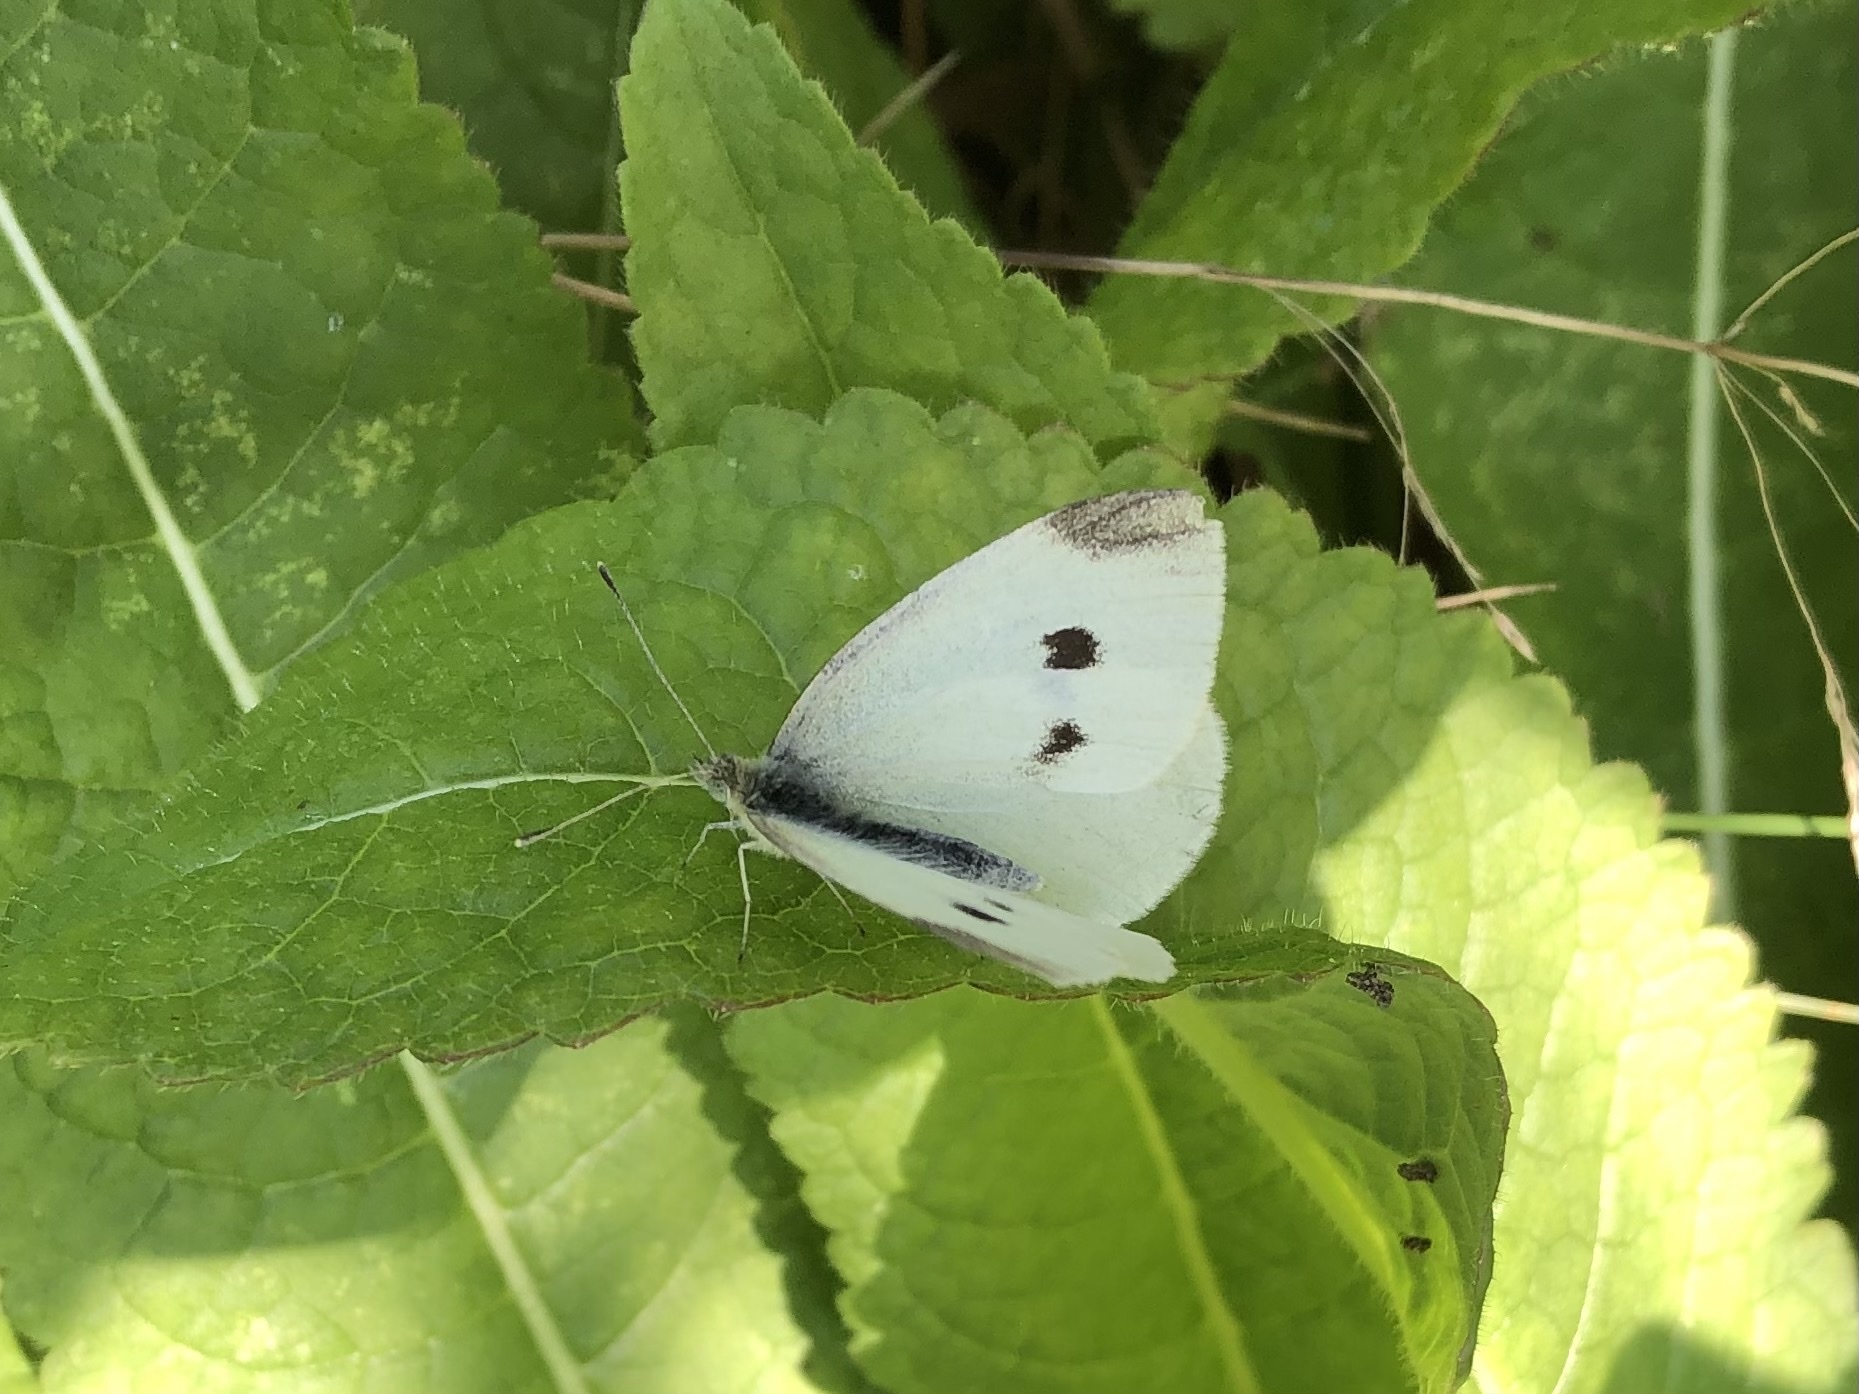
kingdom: Animalia
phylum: Arthropoda
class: Insecta
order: Lepidoptera
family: Pieridae
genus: Pieris
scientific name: Pieris rapae
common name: Small white
